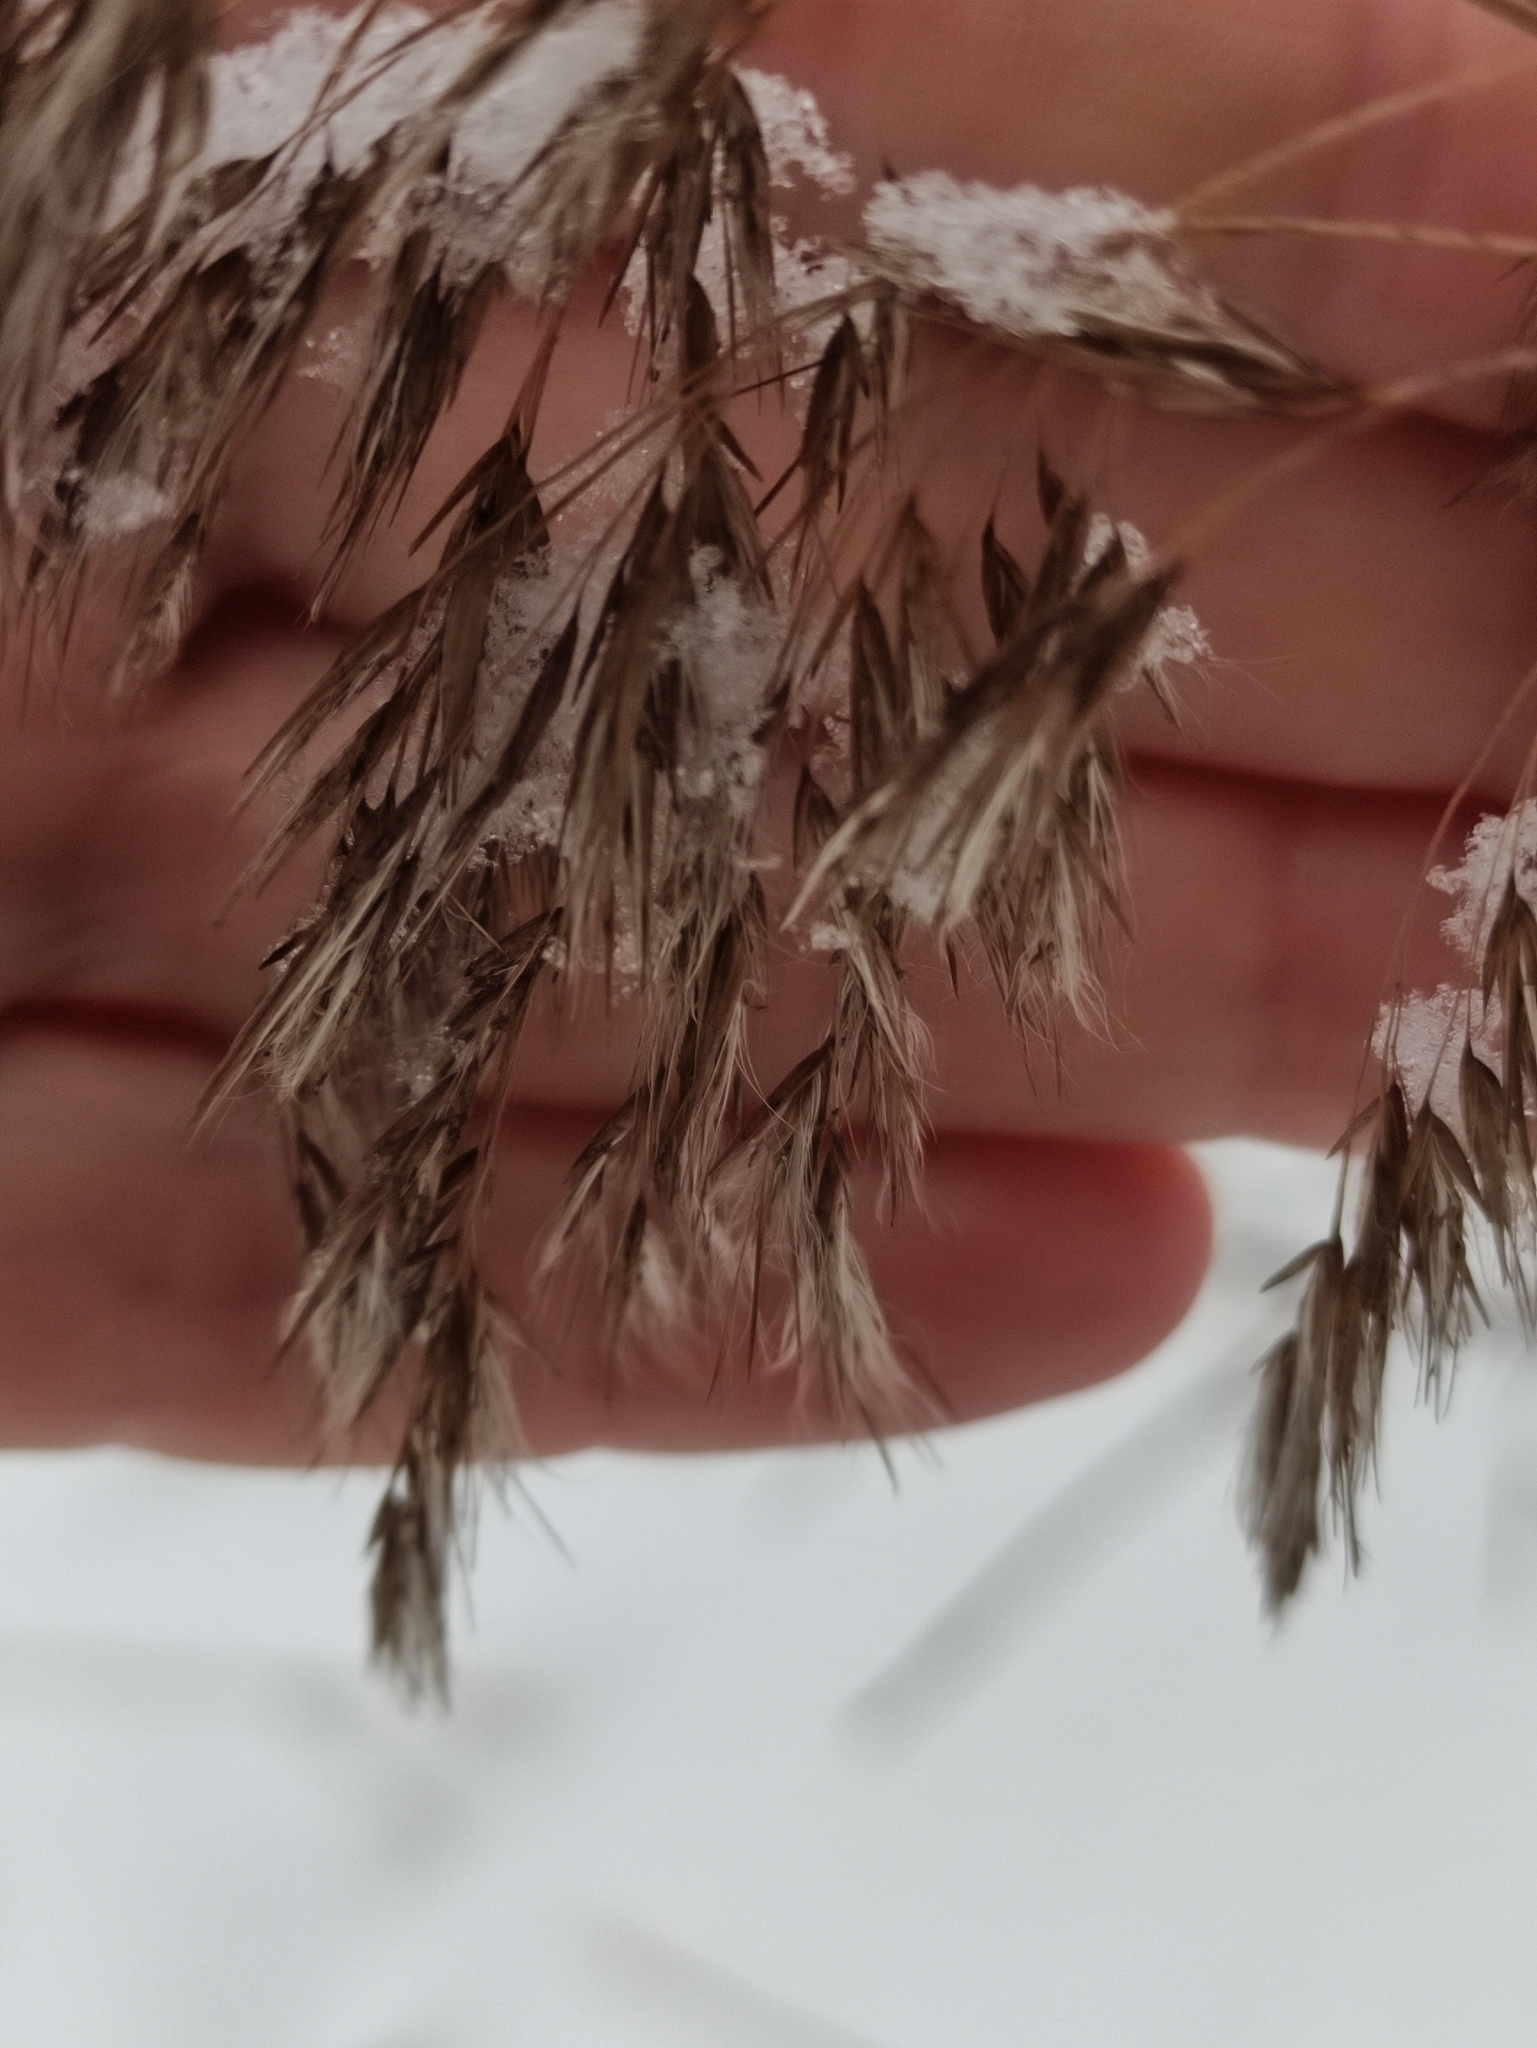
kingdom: Plantae
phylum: Tracheophyta
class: Liliopsida
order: Poales
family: Poaceae
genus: Phragmites
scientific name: Phragmites australis
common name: Common reed
